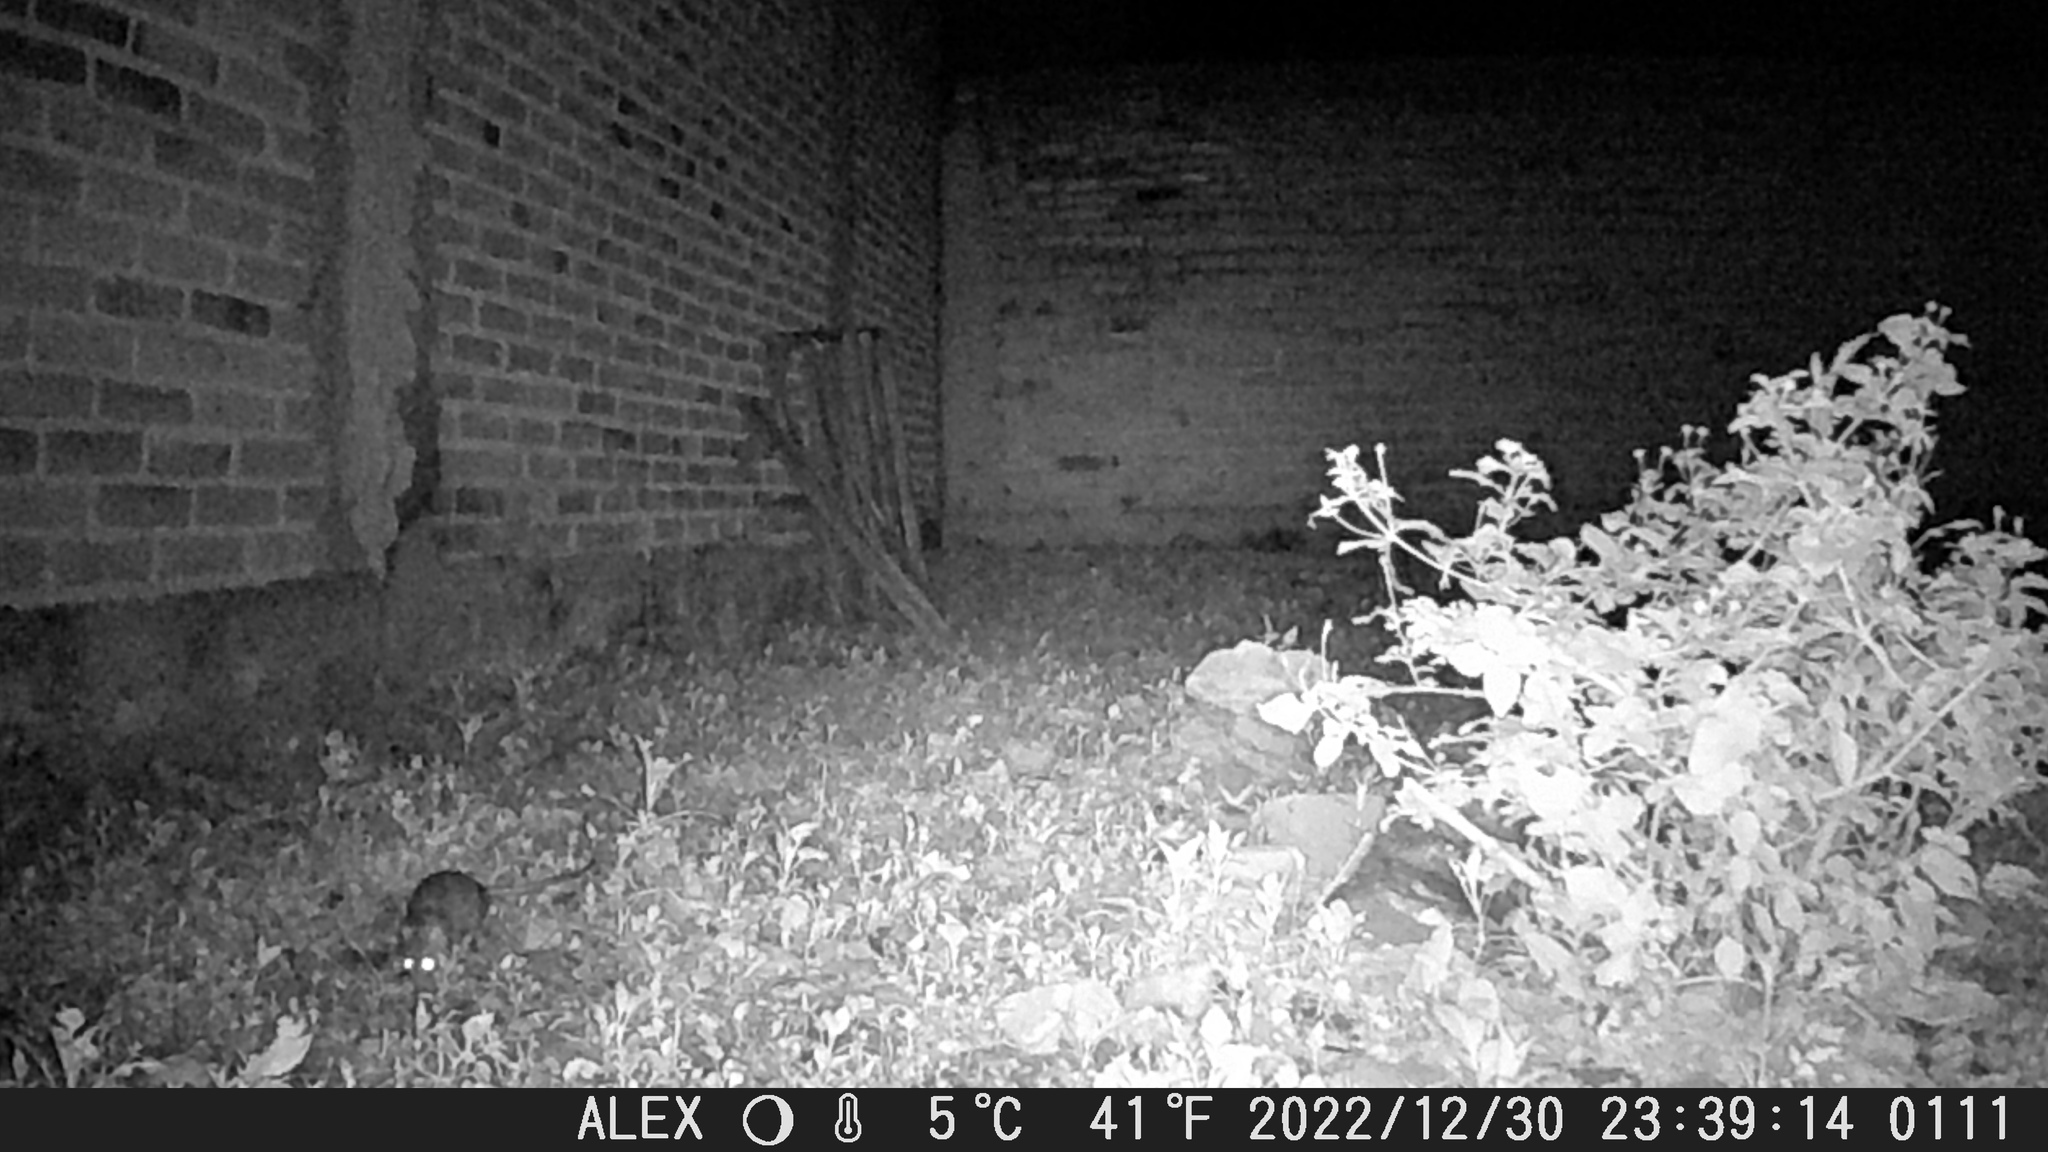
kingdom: Animalia
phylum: Chordata
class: Mammalia
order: Rodentia
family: Muridae
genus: Rattus
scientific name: Rattus
